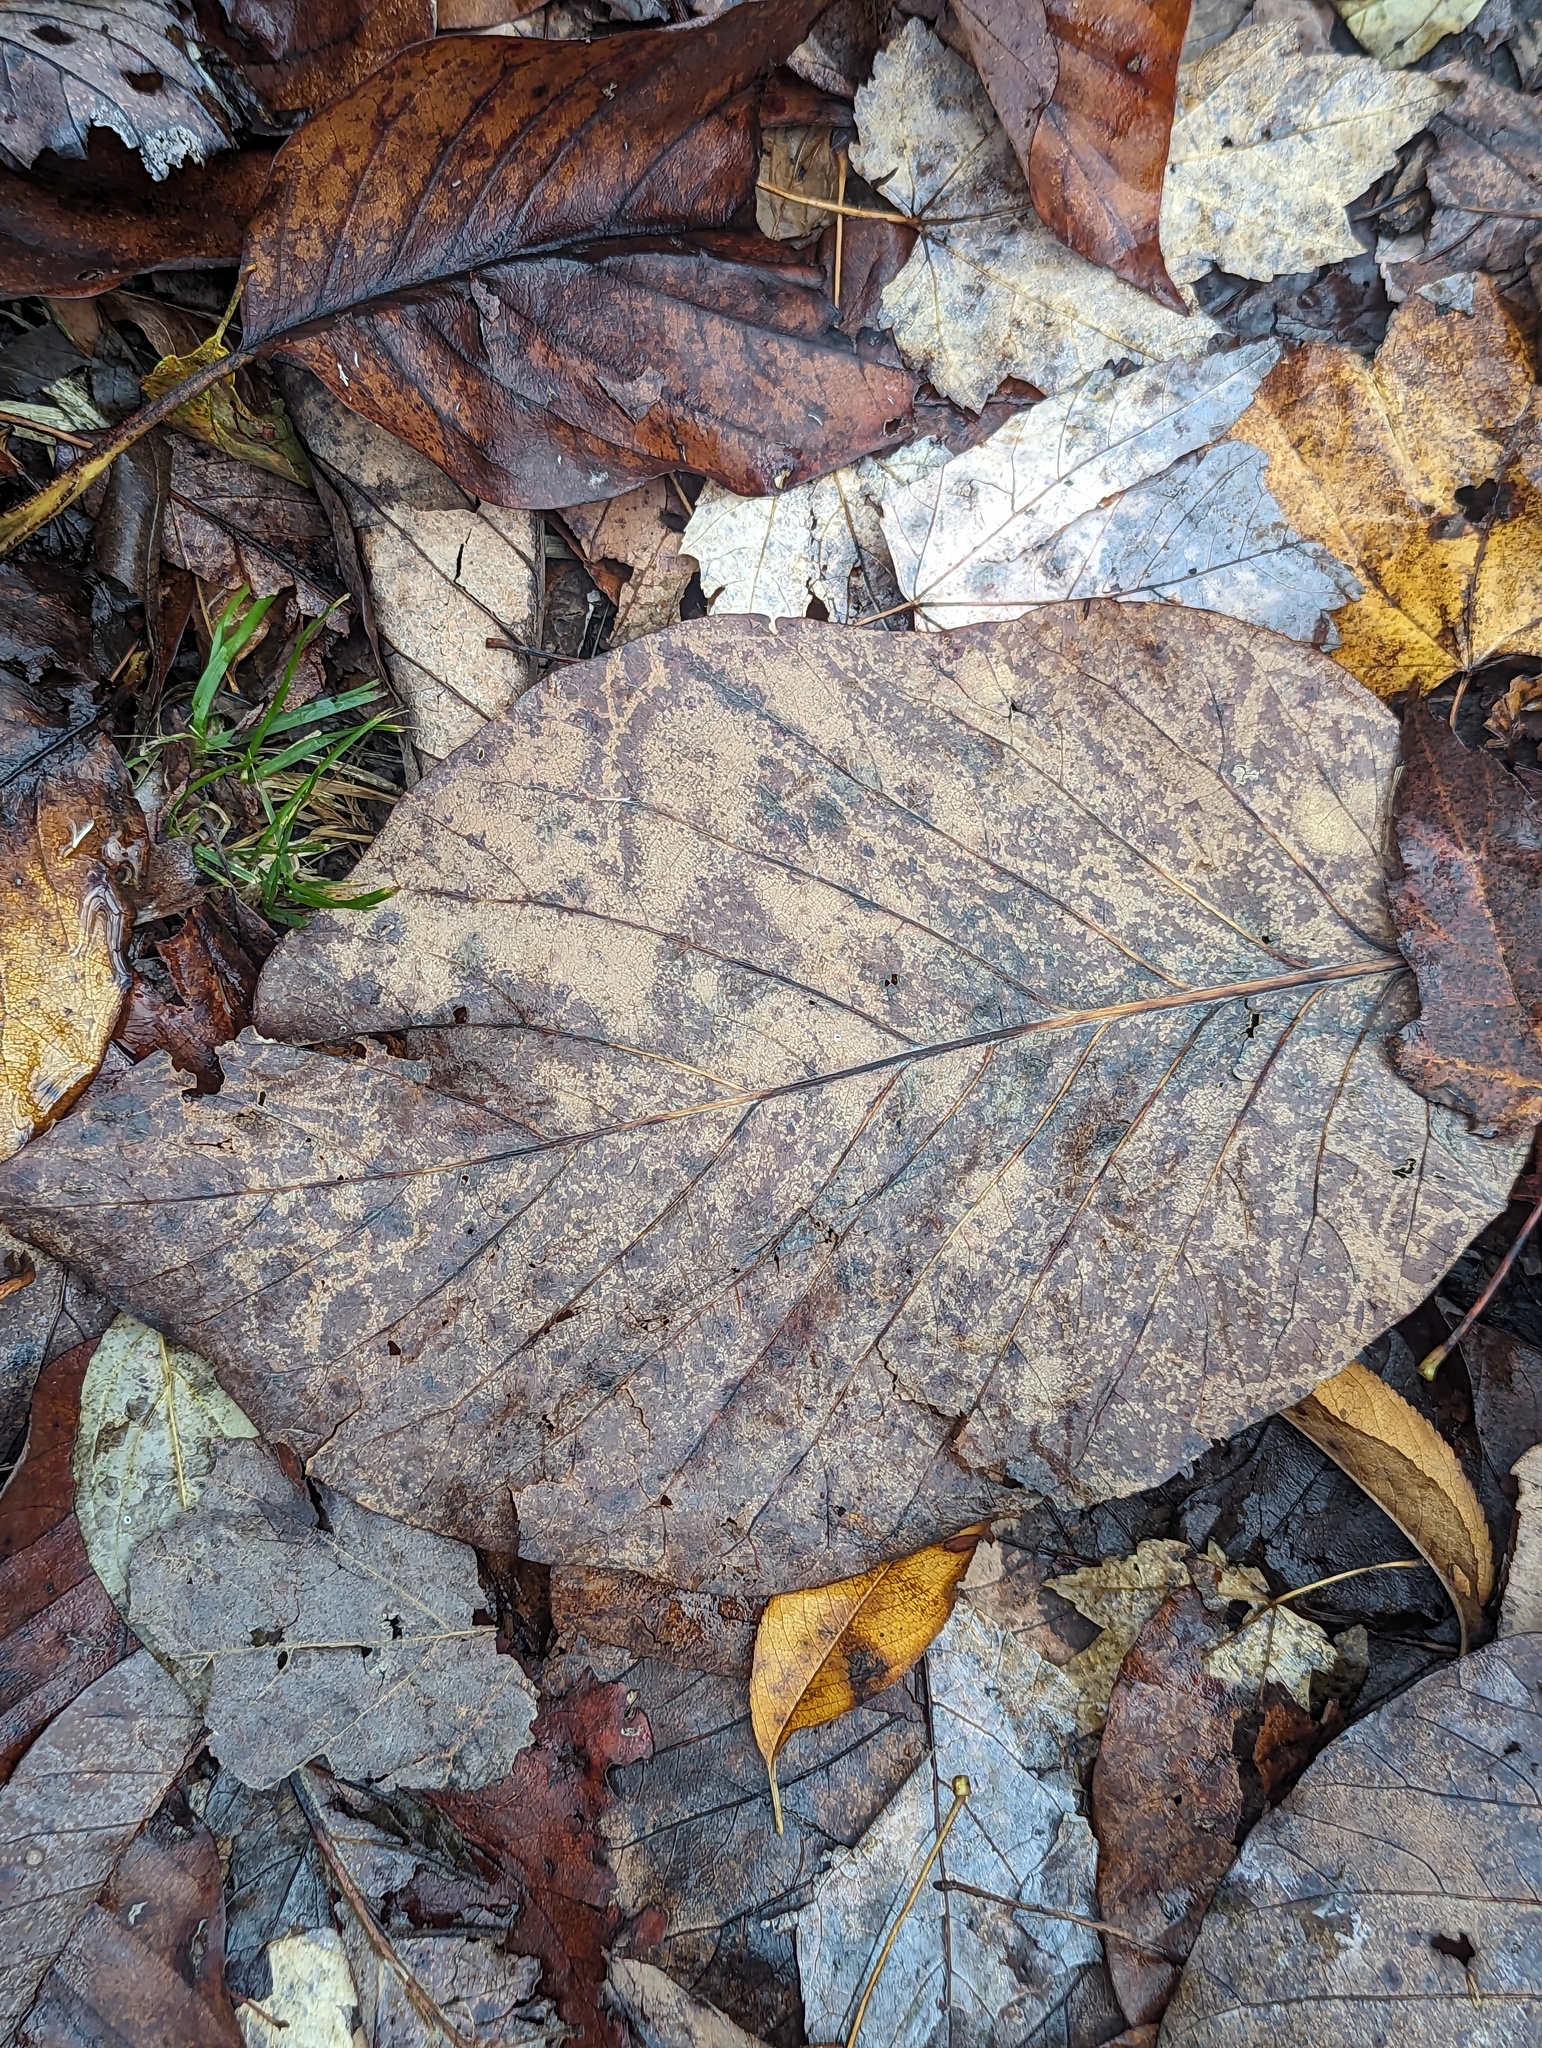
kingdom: Plantae
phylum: Tracheophyta
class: Magnoliopsida
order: Magnoliales
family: Magnoliaceae
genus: Magnolia
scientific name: Magnolia acuminata
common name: Cucumber magnolia
